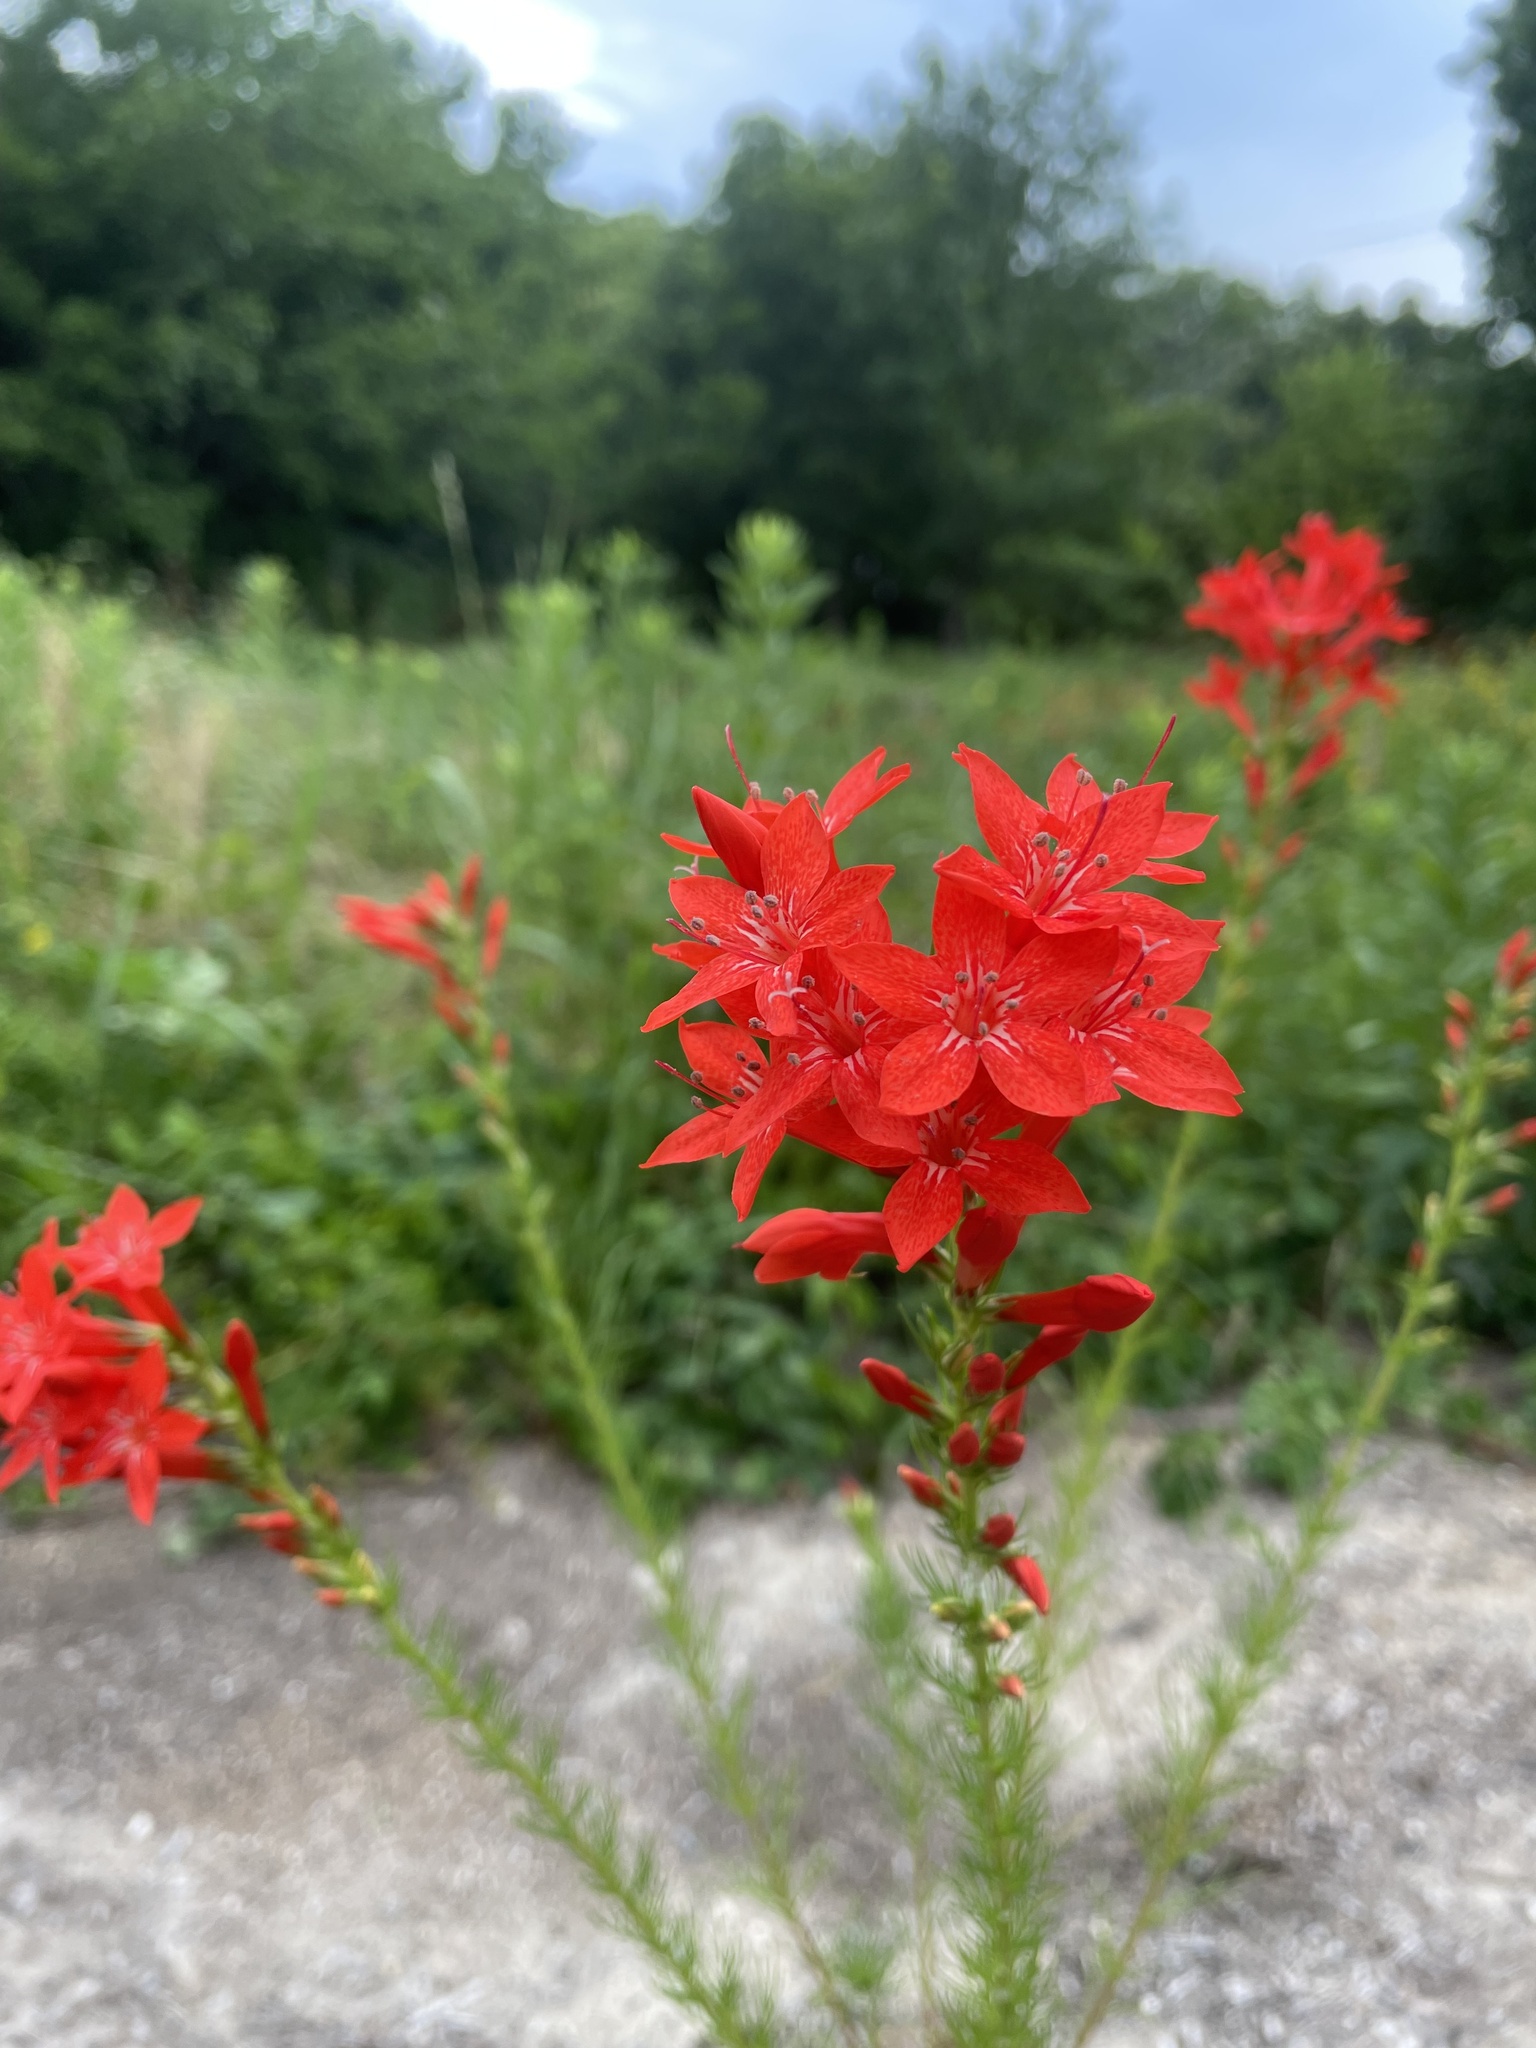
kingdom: Plantae
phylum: Tracheophyta
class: Magnoliopsida
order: Ericales
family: Polemoniaceae
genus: Ipomopsis
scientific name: Ipomopsis rubra
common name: Skyrocket
